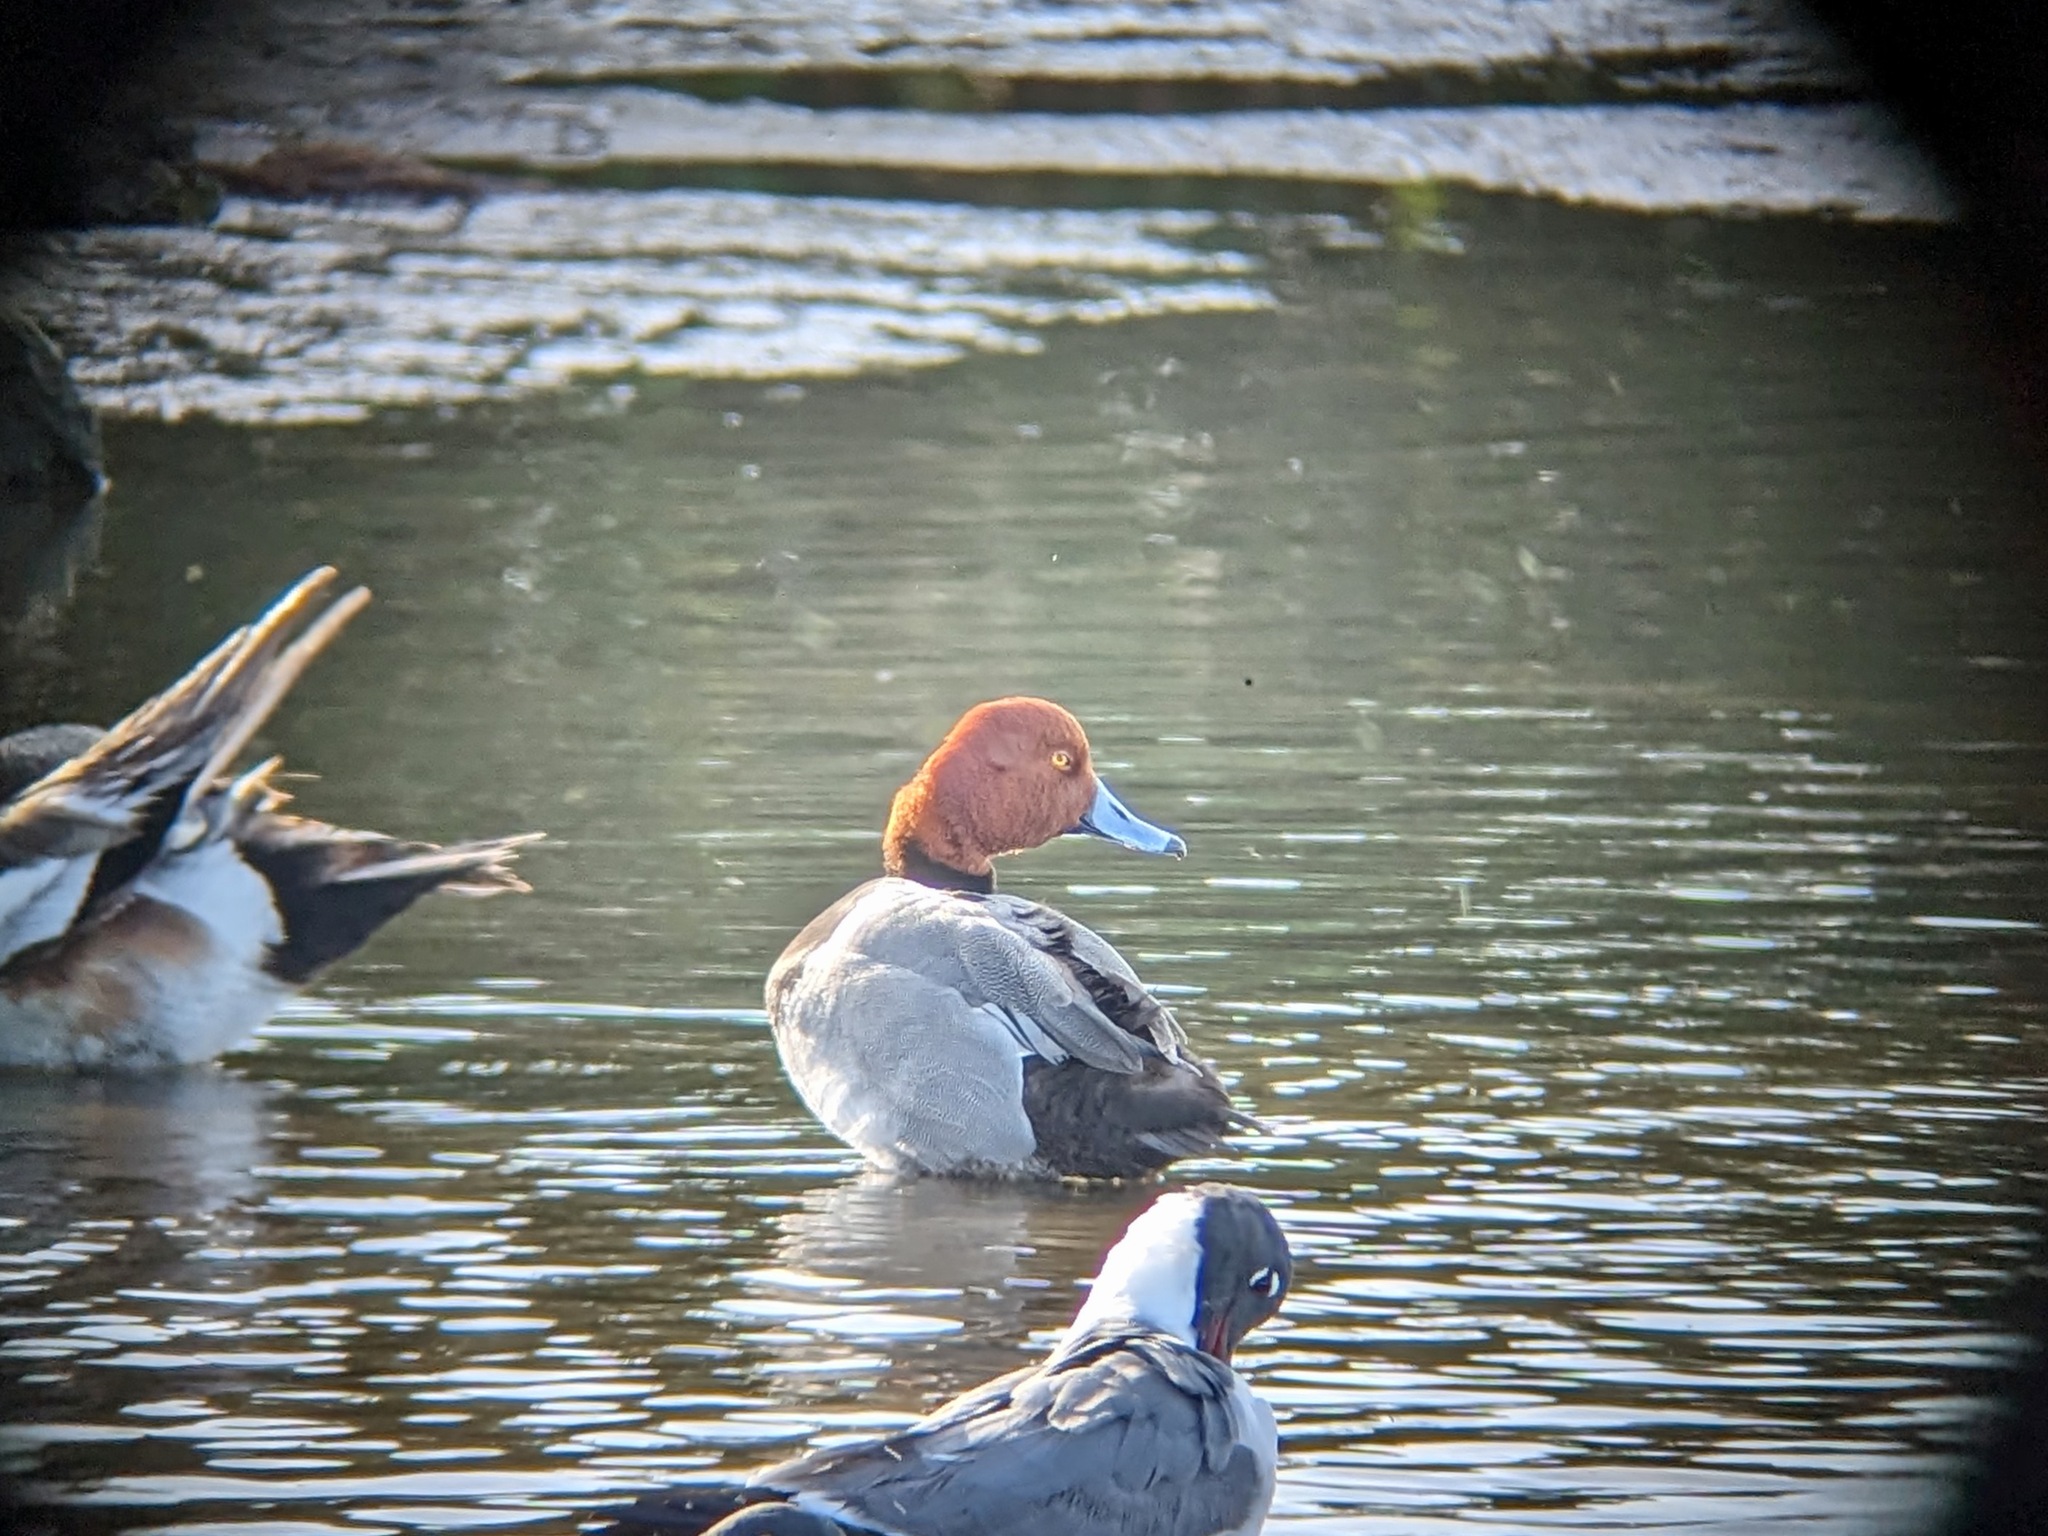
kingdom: Animalia
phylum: Chordata
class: Aves
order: Anseriformes
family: Anatidae
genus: Aythya
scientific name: Aythya americana
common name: Redhead
